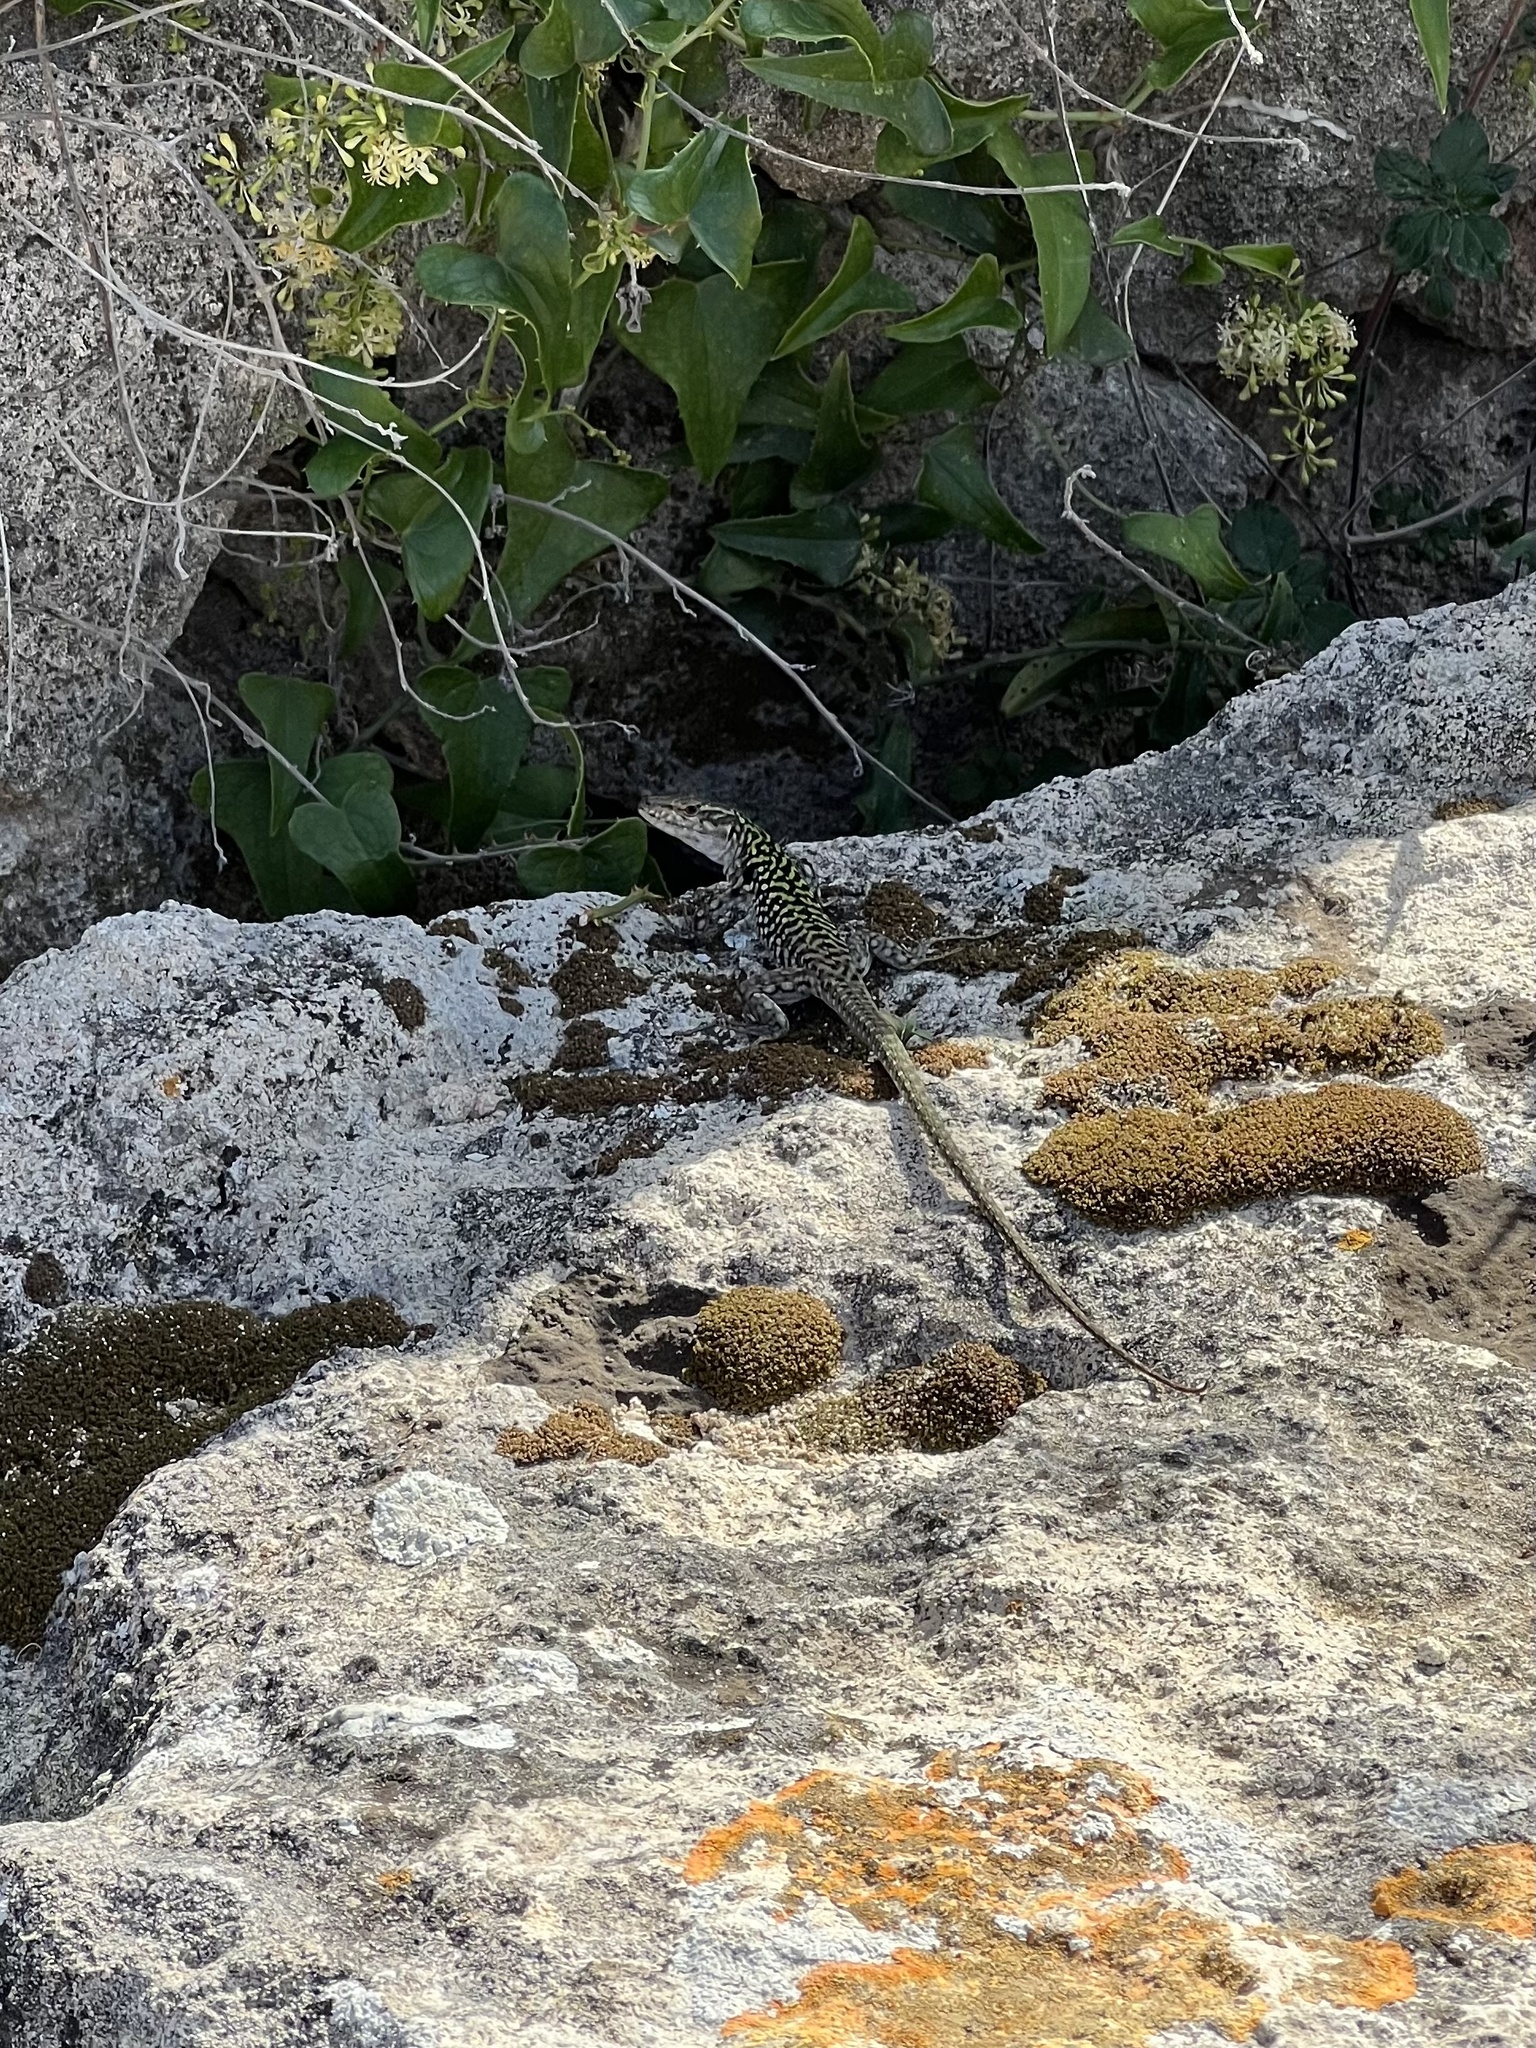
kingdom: Animalia
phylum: Chordata
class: Squamata
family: Lacertidae
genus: Podarcis
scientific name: Podarcis siculus
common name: Italian wall lizard
